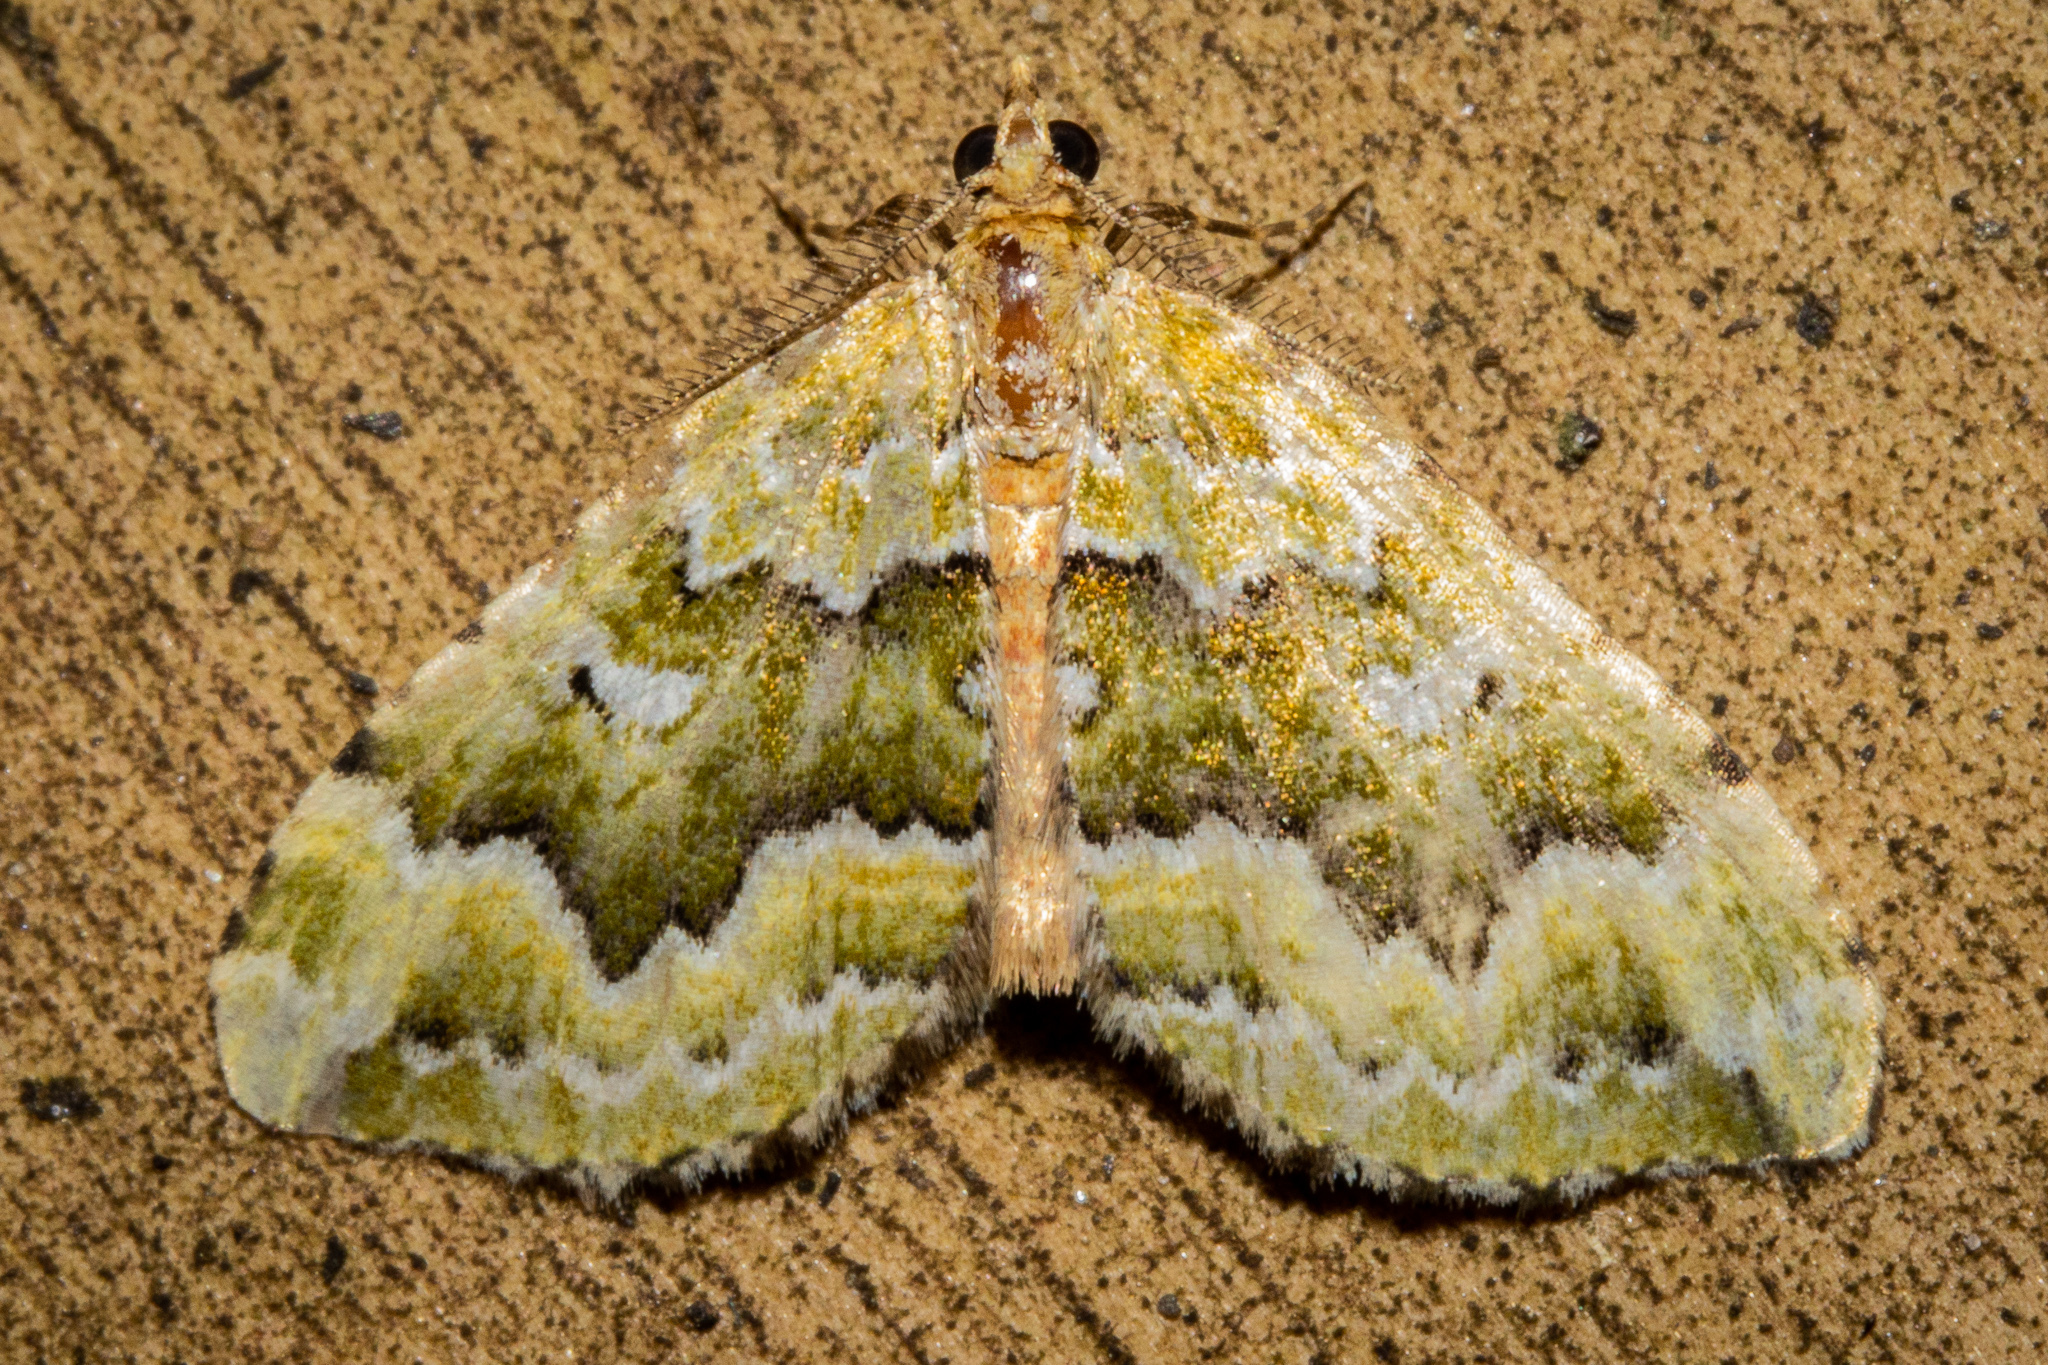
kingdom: Animalia
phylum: Arthropoda
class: Insecta
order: Lepidoptera
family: Geometridae
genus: Asaphodes
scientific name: Asaphodes beata
